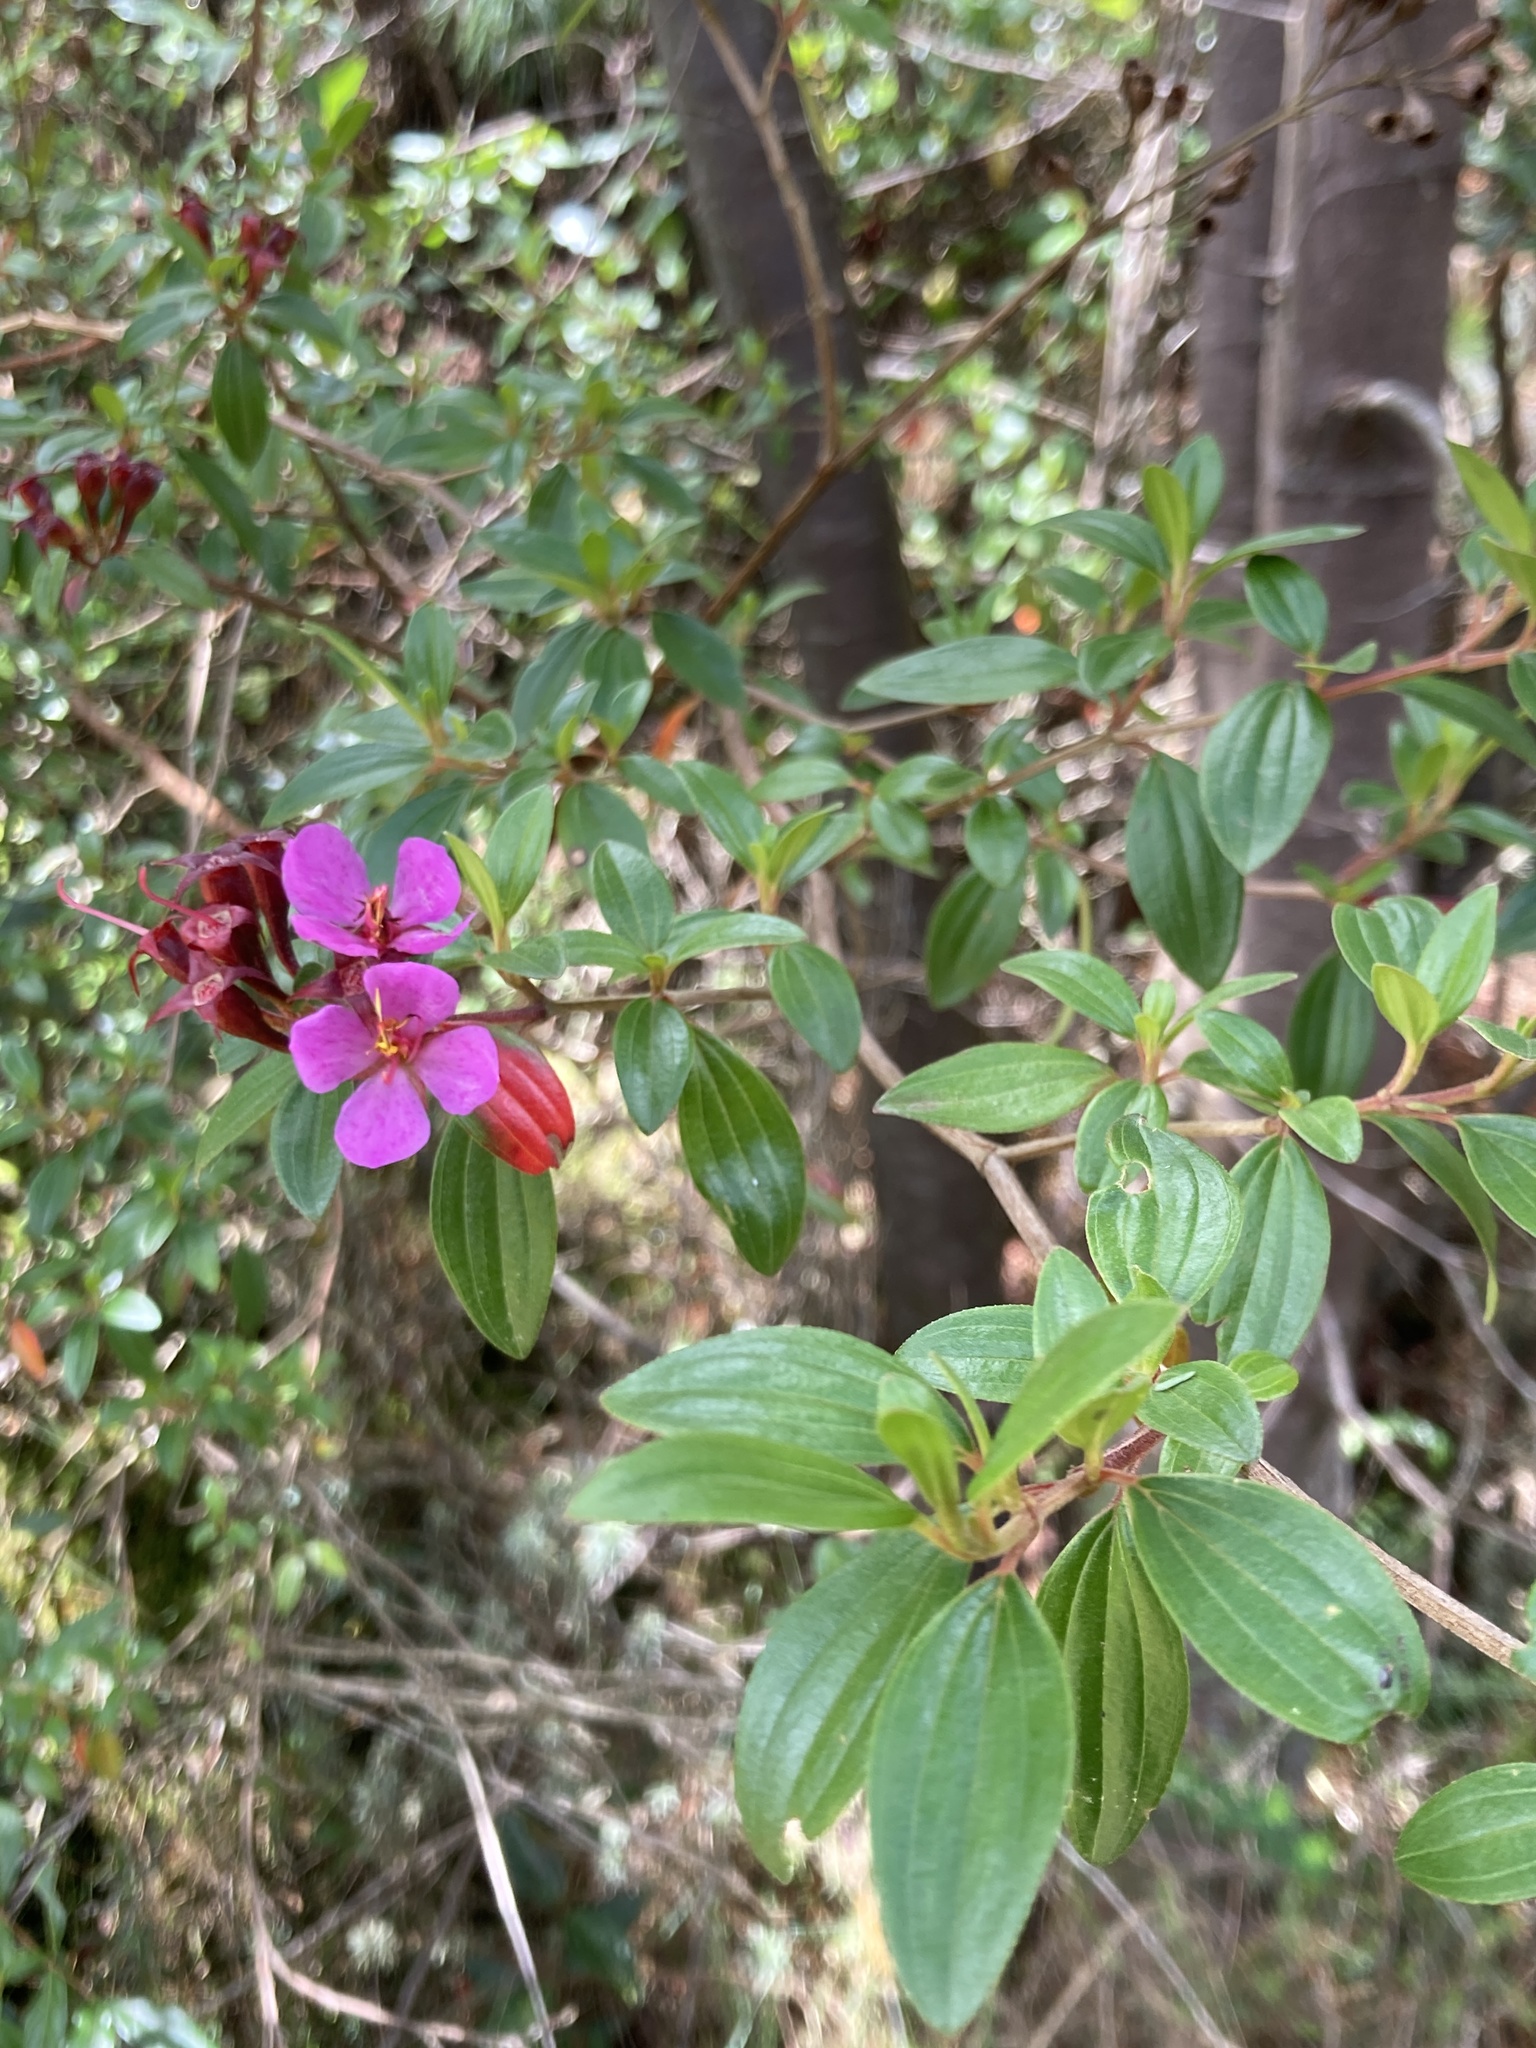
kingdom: Plantae
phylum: Tracheophyta
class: Magnoliopsida
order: Myrtales
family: Melastomataceae
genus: Monochaetum
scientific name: Monochaetum myrtoideum
